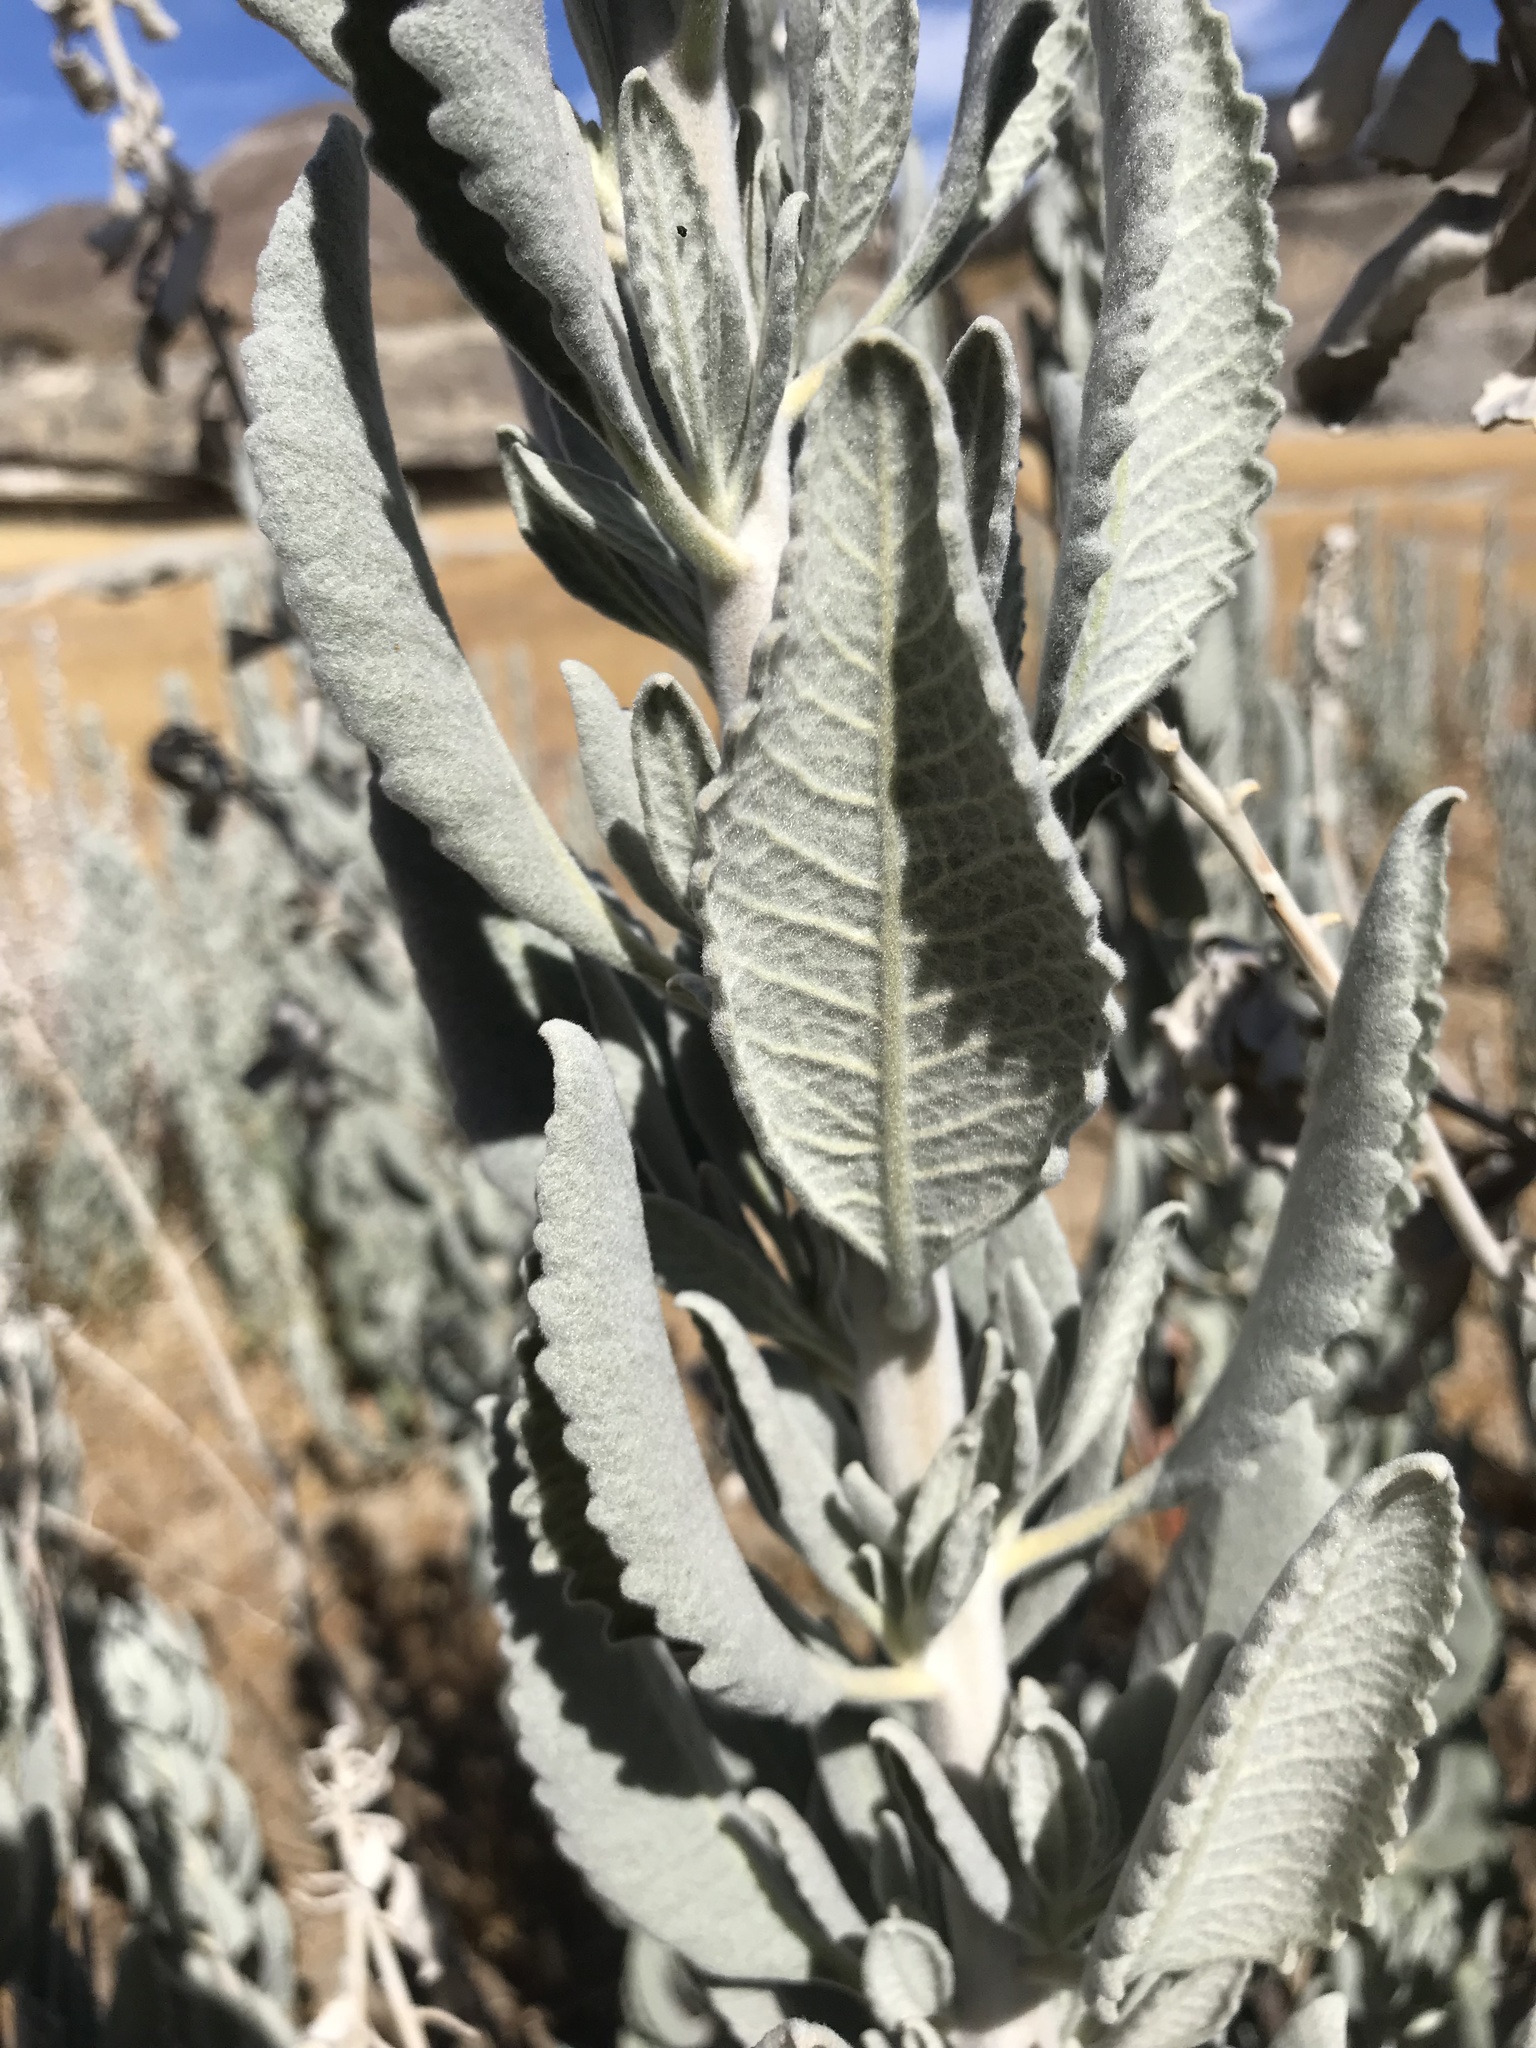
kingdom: Plantae
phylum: Tracheophyta
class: Magnoliopsida
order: Boraginales
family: Namaceae
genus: Eriodictyon
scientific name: Eriodictyon tomentosum
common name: Woolly yerba-santa
